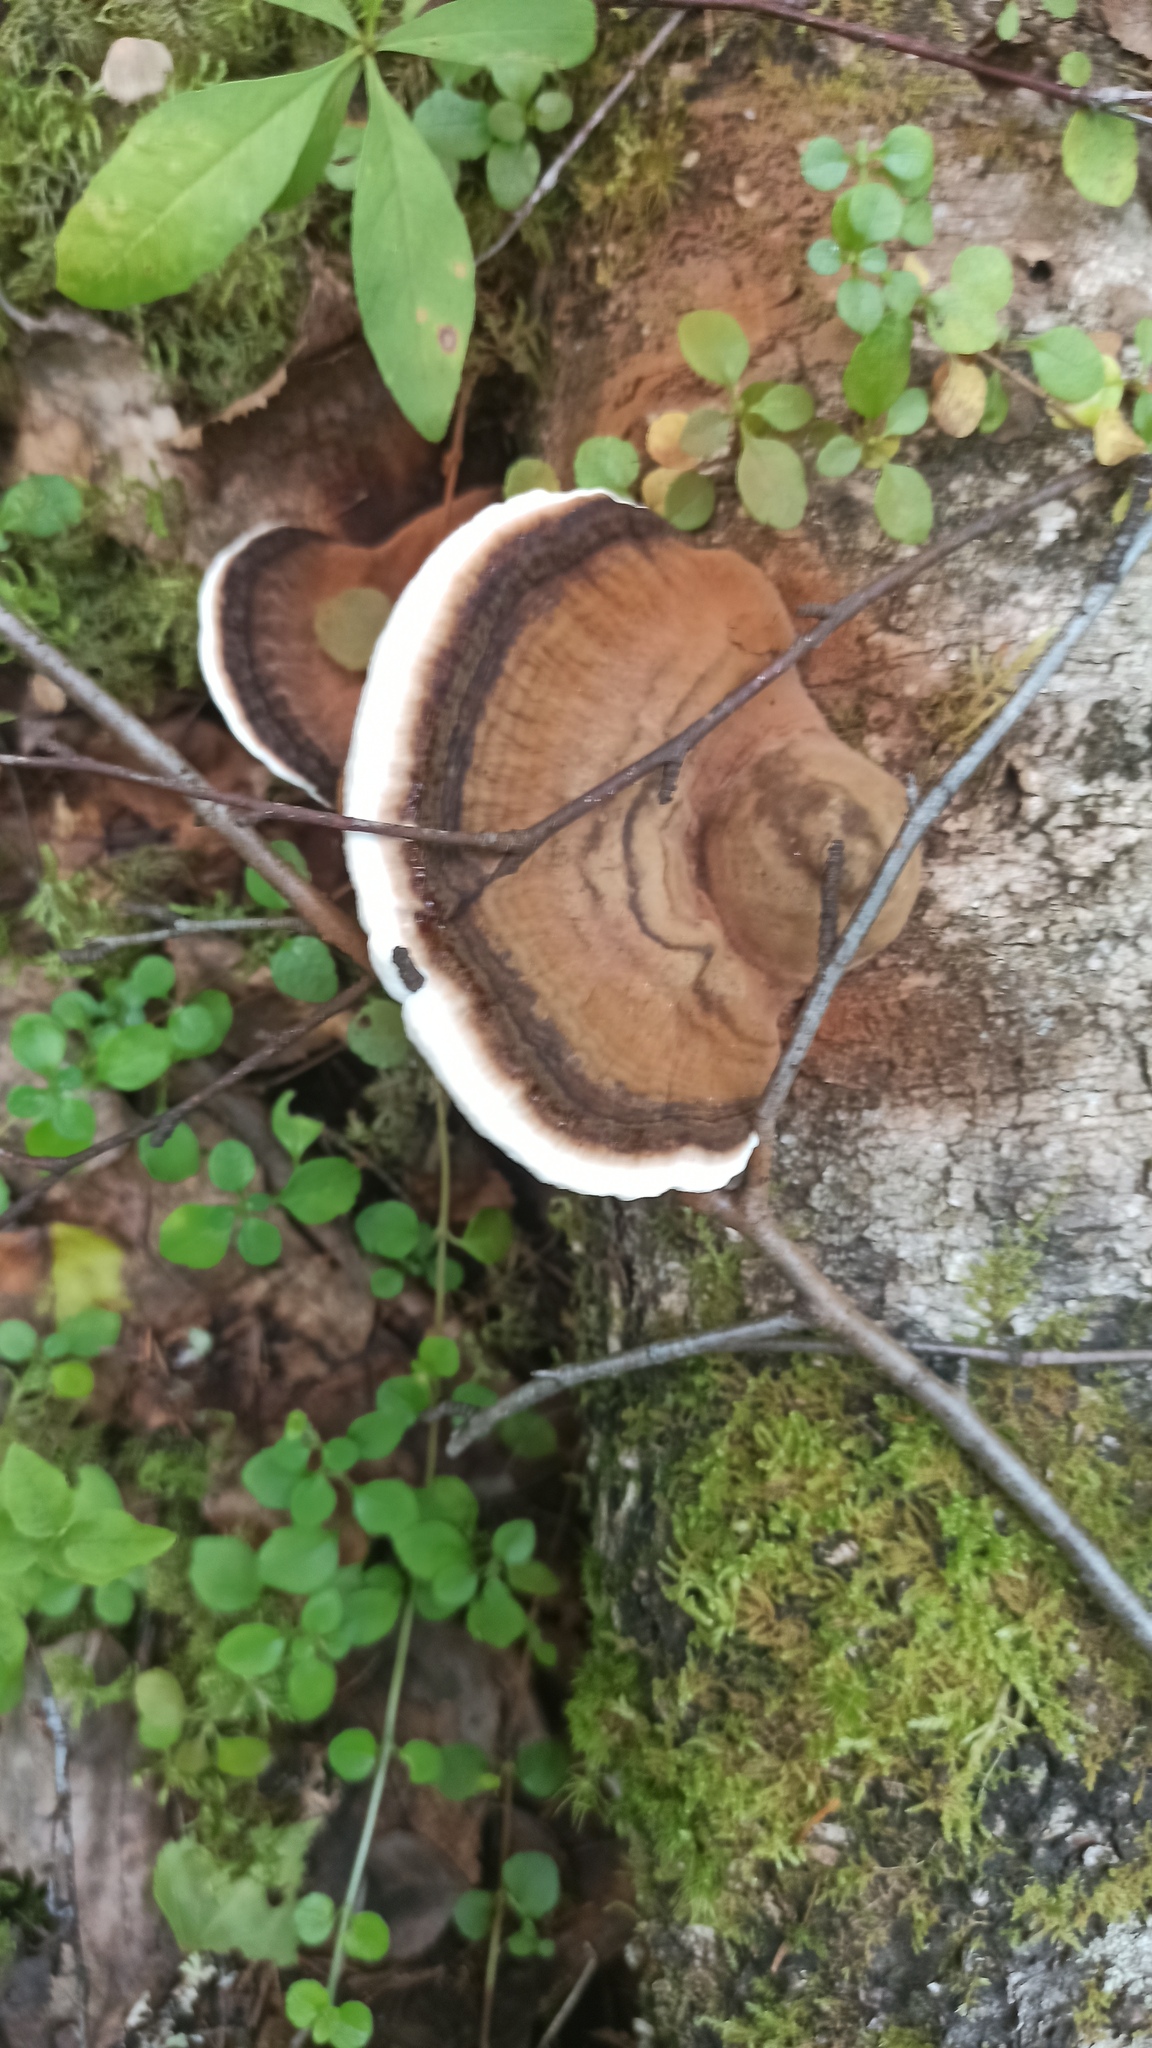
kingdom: Fungi
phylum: Basidiomycota
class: Agaricomycetes
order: Polyporales
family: Polyporaceae
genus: Ganoderma
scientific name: Ganoderma applanatum
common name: Artist's bracket
